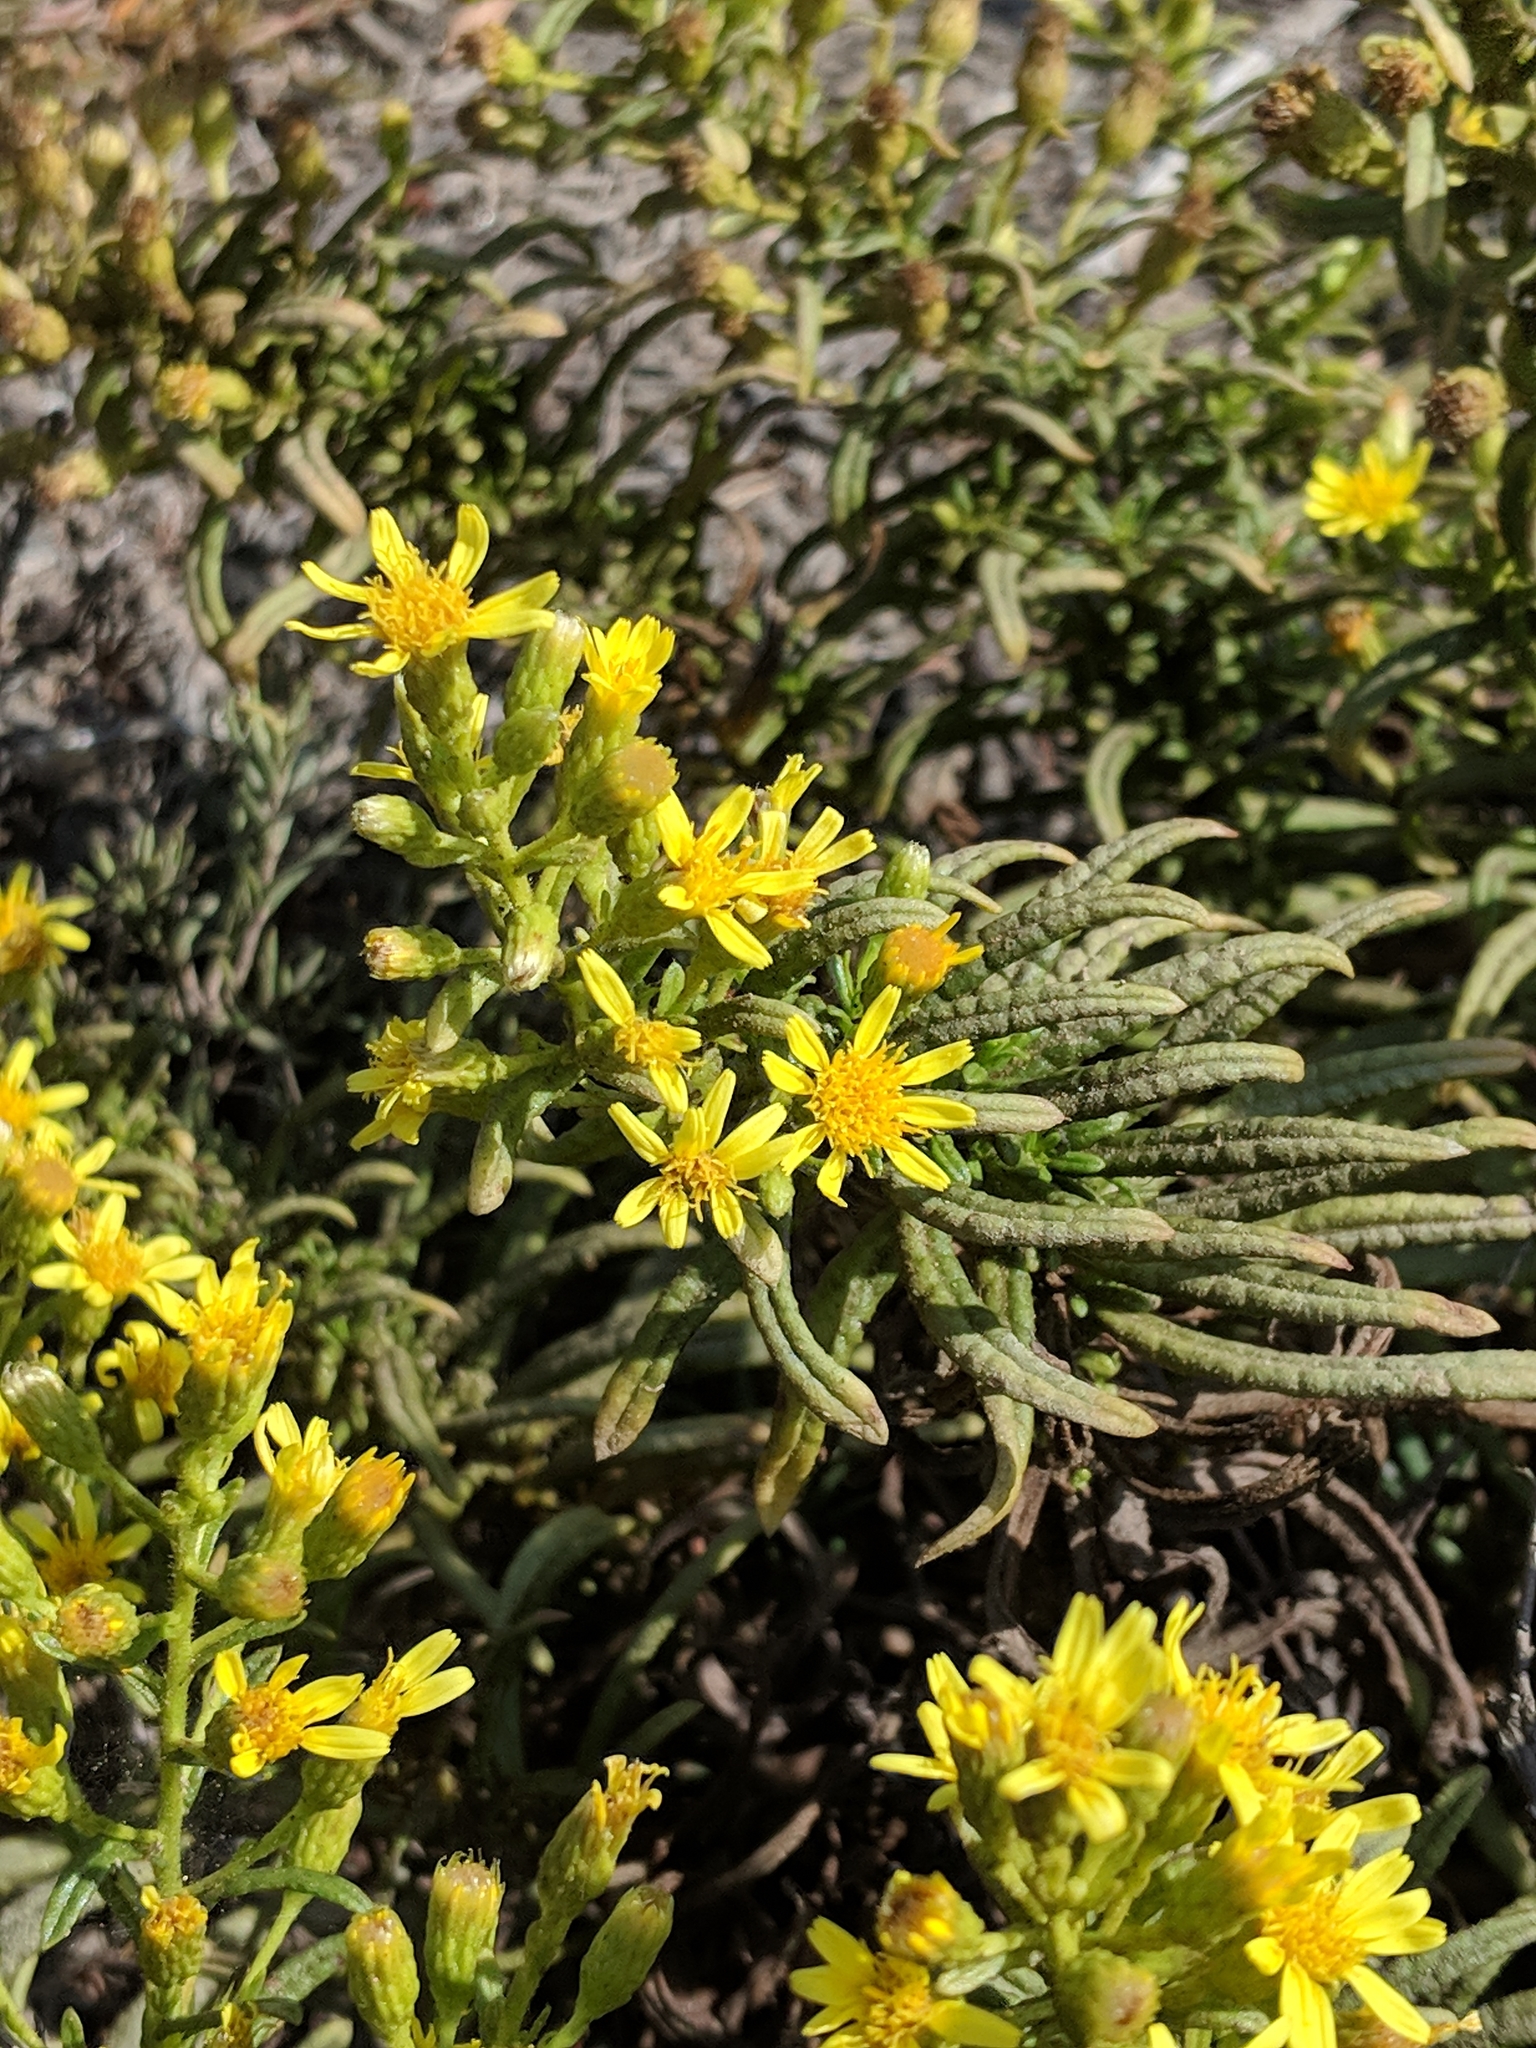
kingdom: Plantae
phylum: Tracheophyta
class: Magnoliopsida
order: Asterales
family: Asteraceae
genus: Dittrichia
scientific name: Dittrichia viscosa
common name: Woody fleabane
